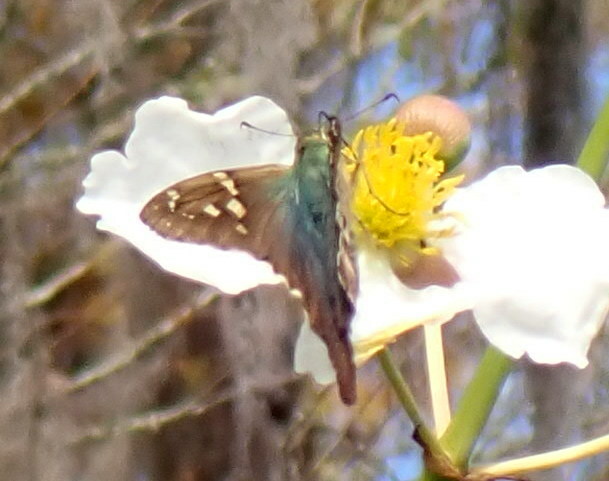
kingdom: Animalia
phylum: Arthropoda
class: Insecta
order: Lepidoptera
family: Hesperiidae
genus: Urbanus
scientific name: Urbanus proteus
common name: Long-tailed skipper
